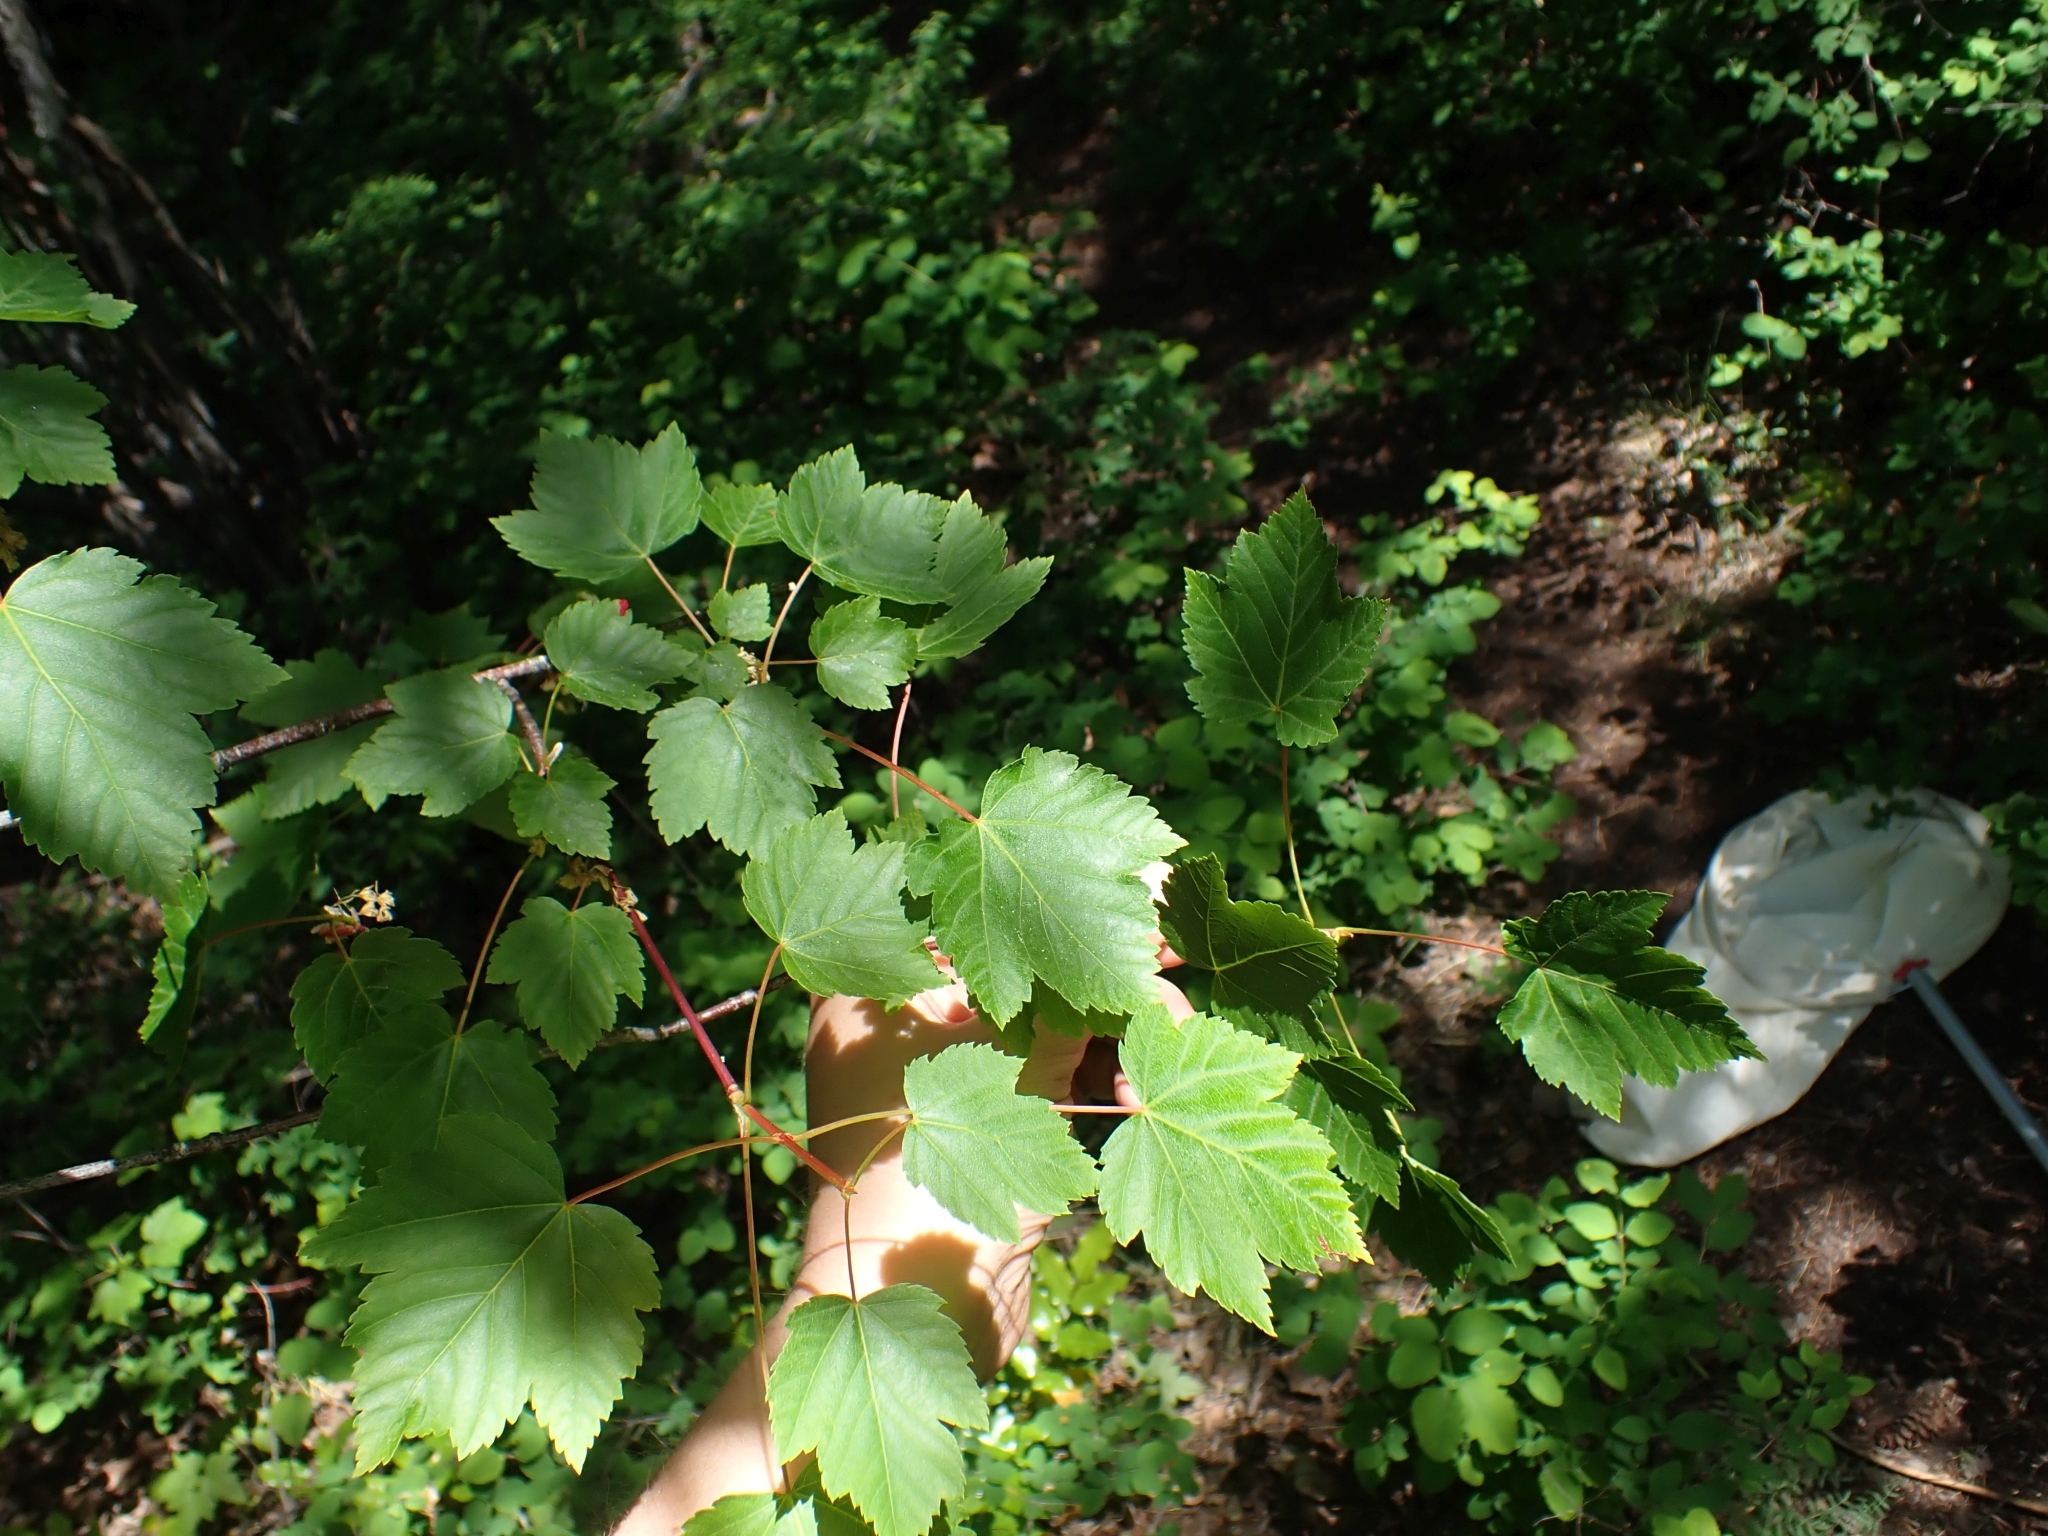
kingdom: Plantae
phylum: Tracheophyta
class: Magnoliopsida
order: Sapindales
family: Sapindaceae
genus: Acer
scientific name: Acer glabrum
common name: Rocky mountain maple
